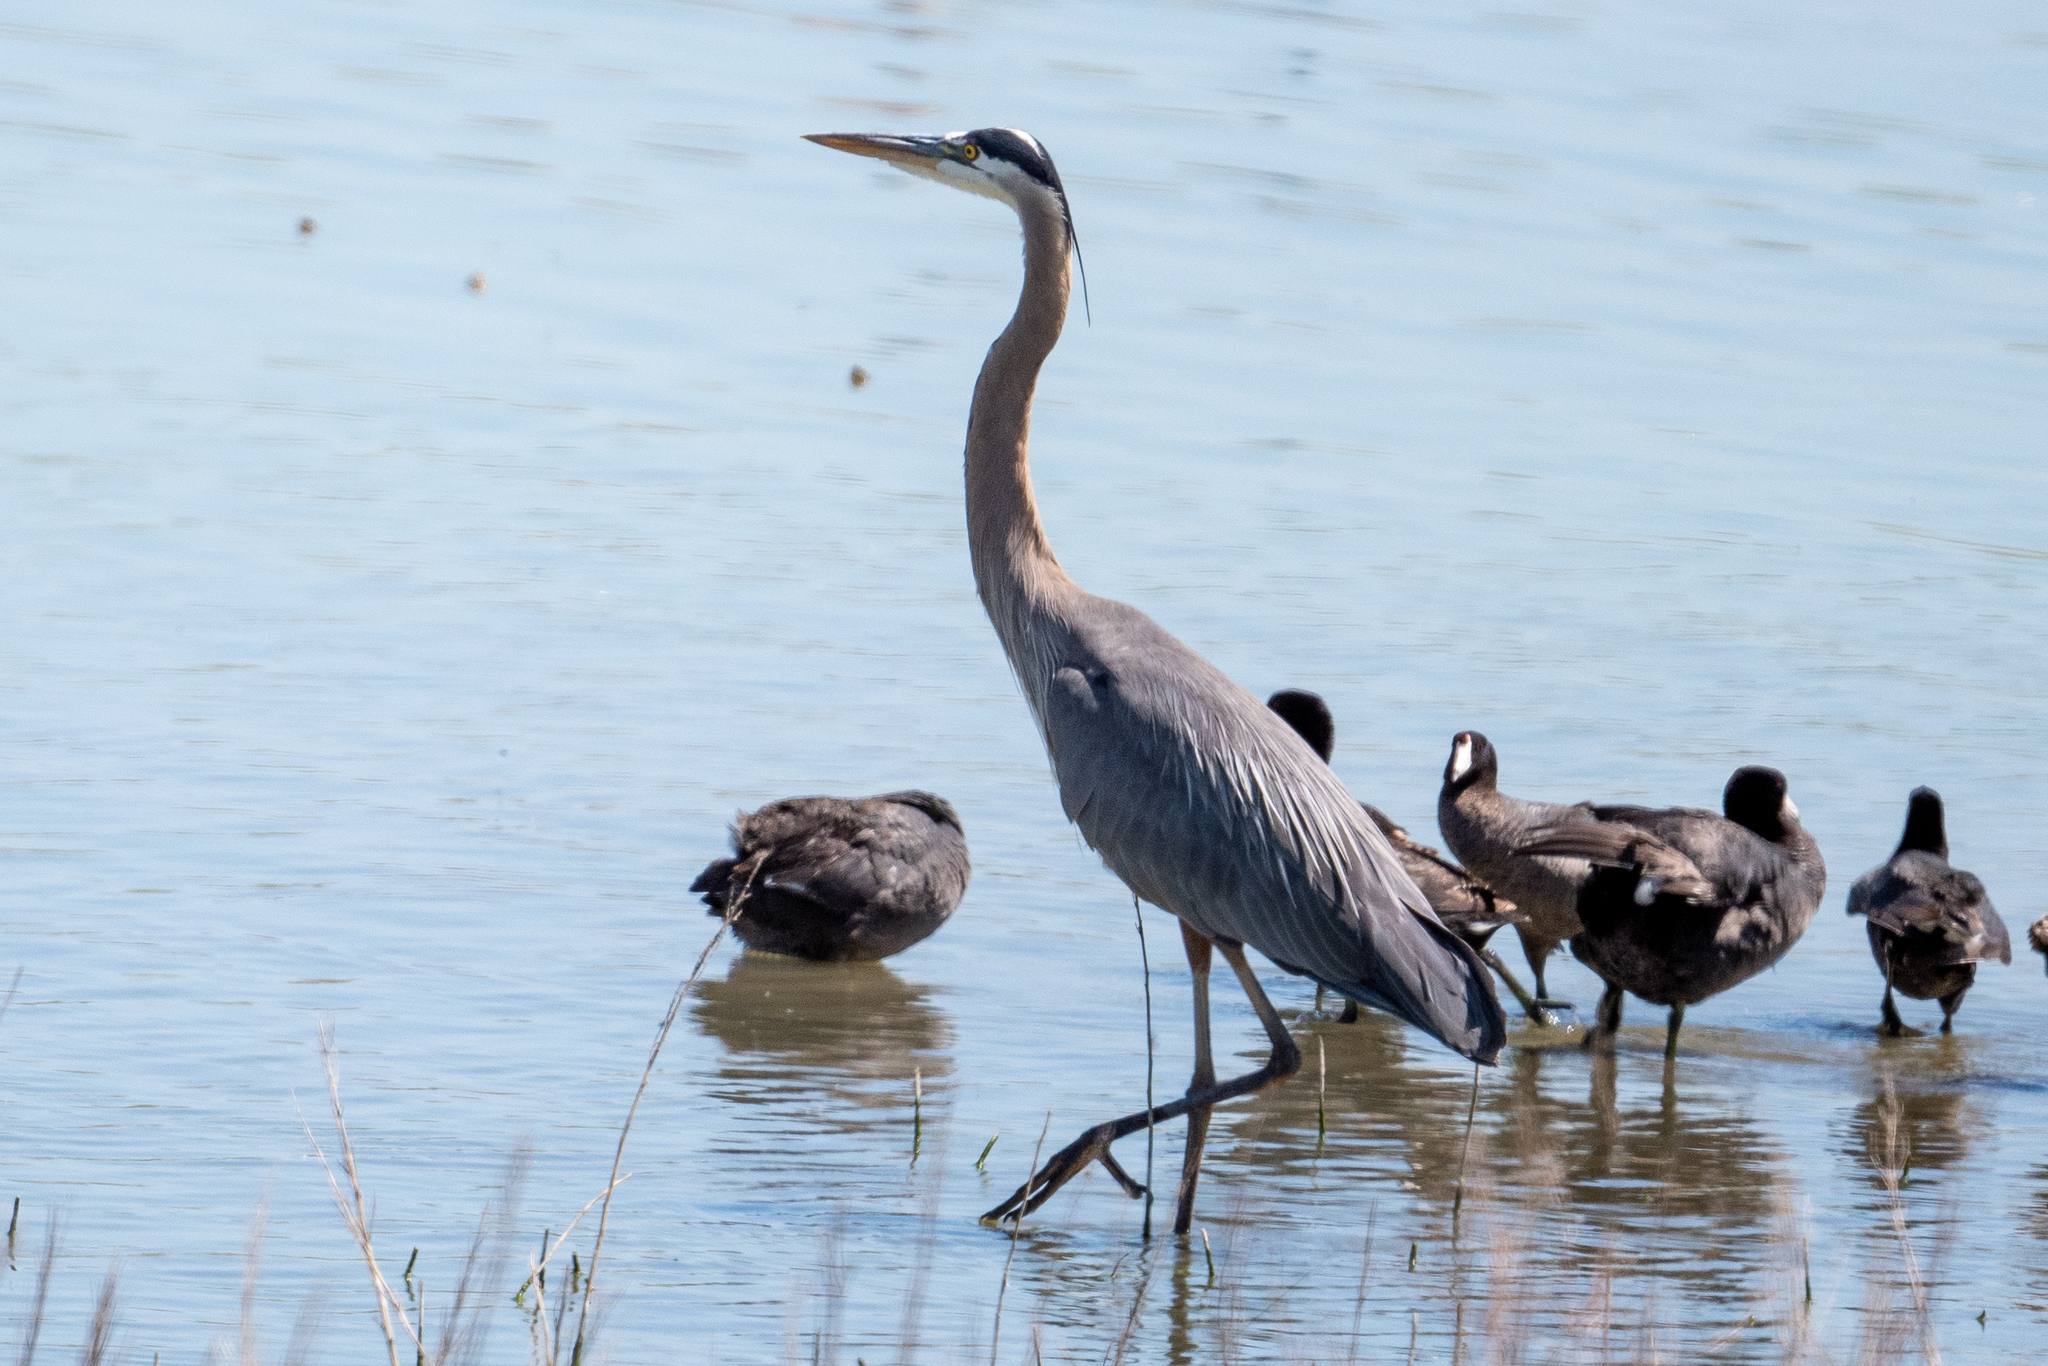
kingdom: Animalia
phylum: Chordata
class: Aves
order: Pelecaniformes
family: Ardeidae
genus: Ardea
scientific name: Ardea herodias
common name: Great blue heron
